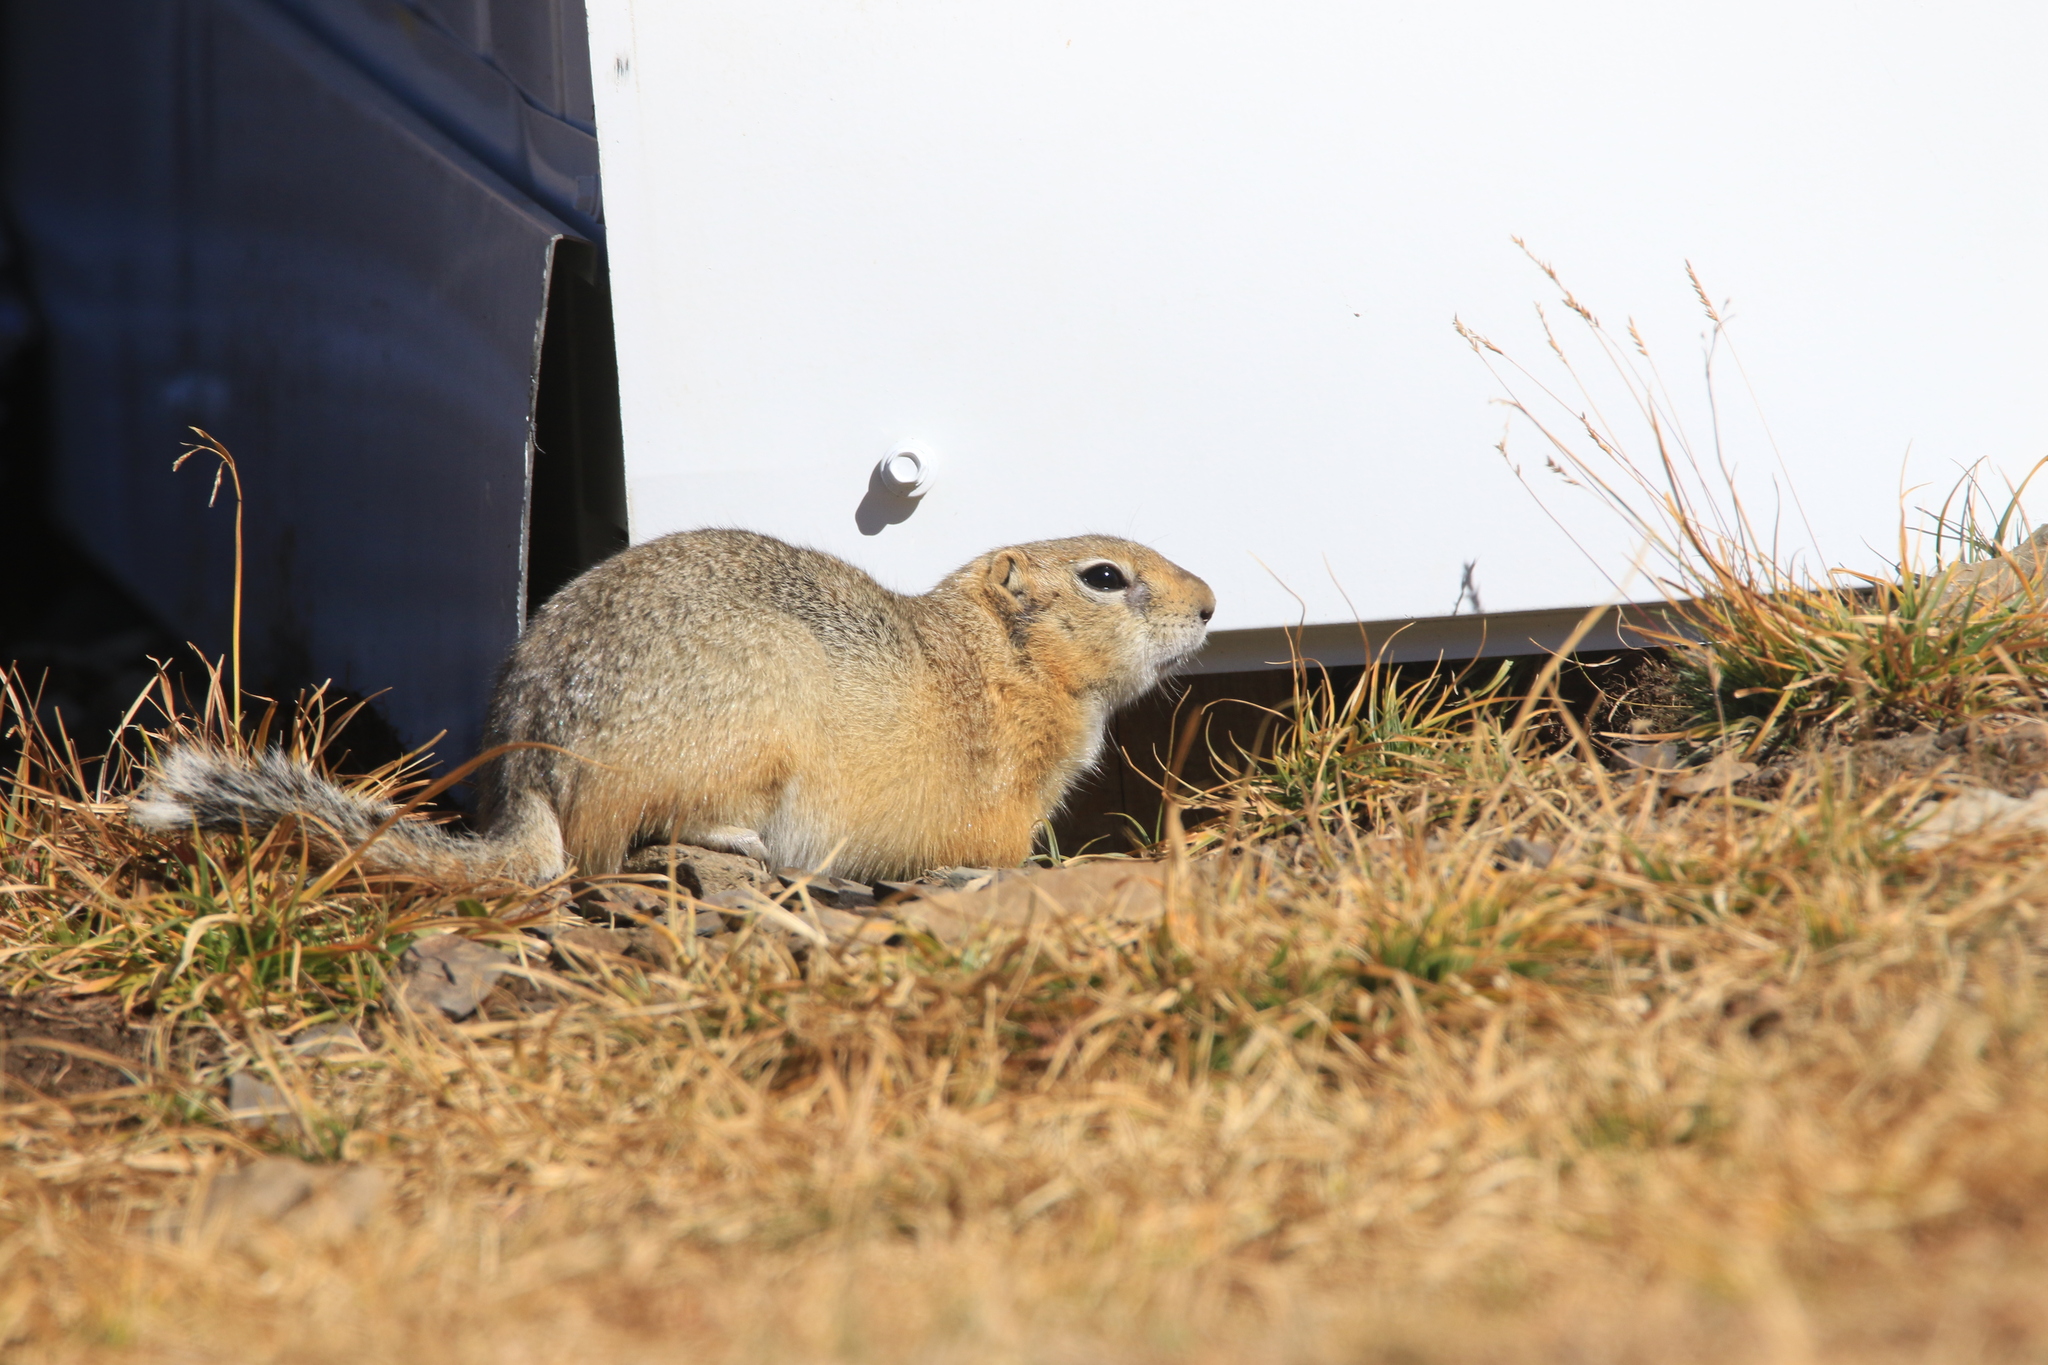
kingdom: Animalia
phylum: Chordata
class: Mammalia
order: Rodentia
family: Sciuridae
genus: Urocitellus
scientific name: Urocitellus undulatus
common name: Long-tailed ground squirrel
